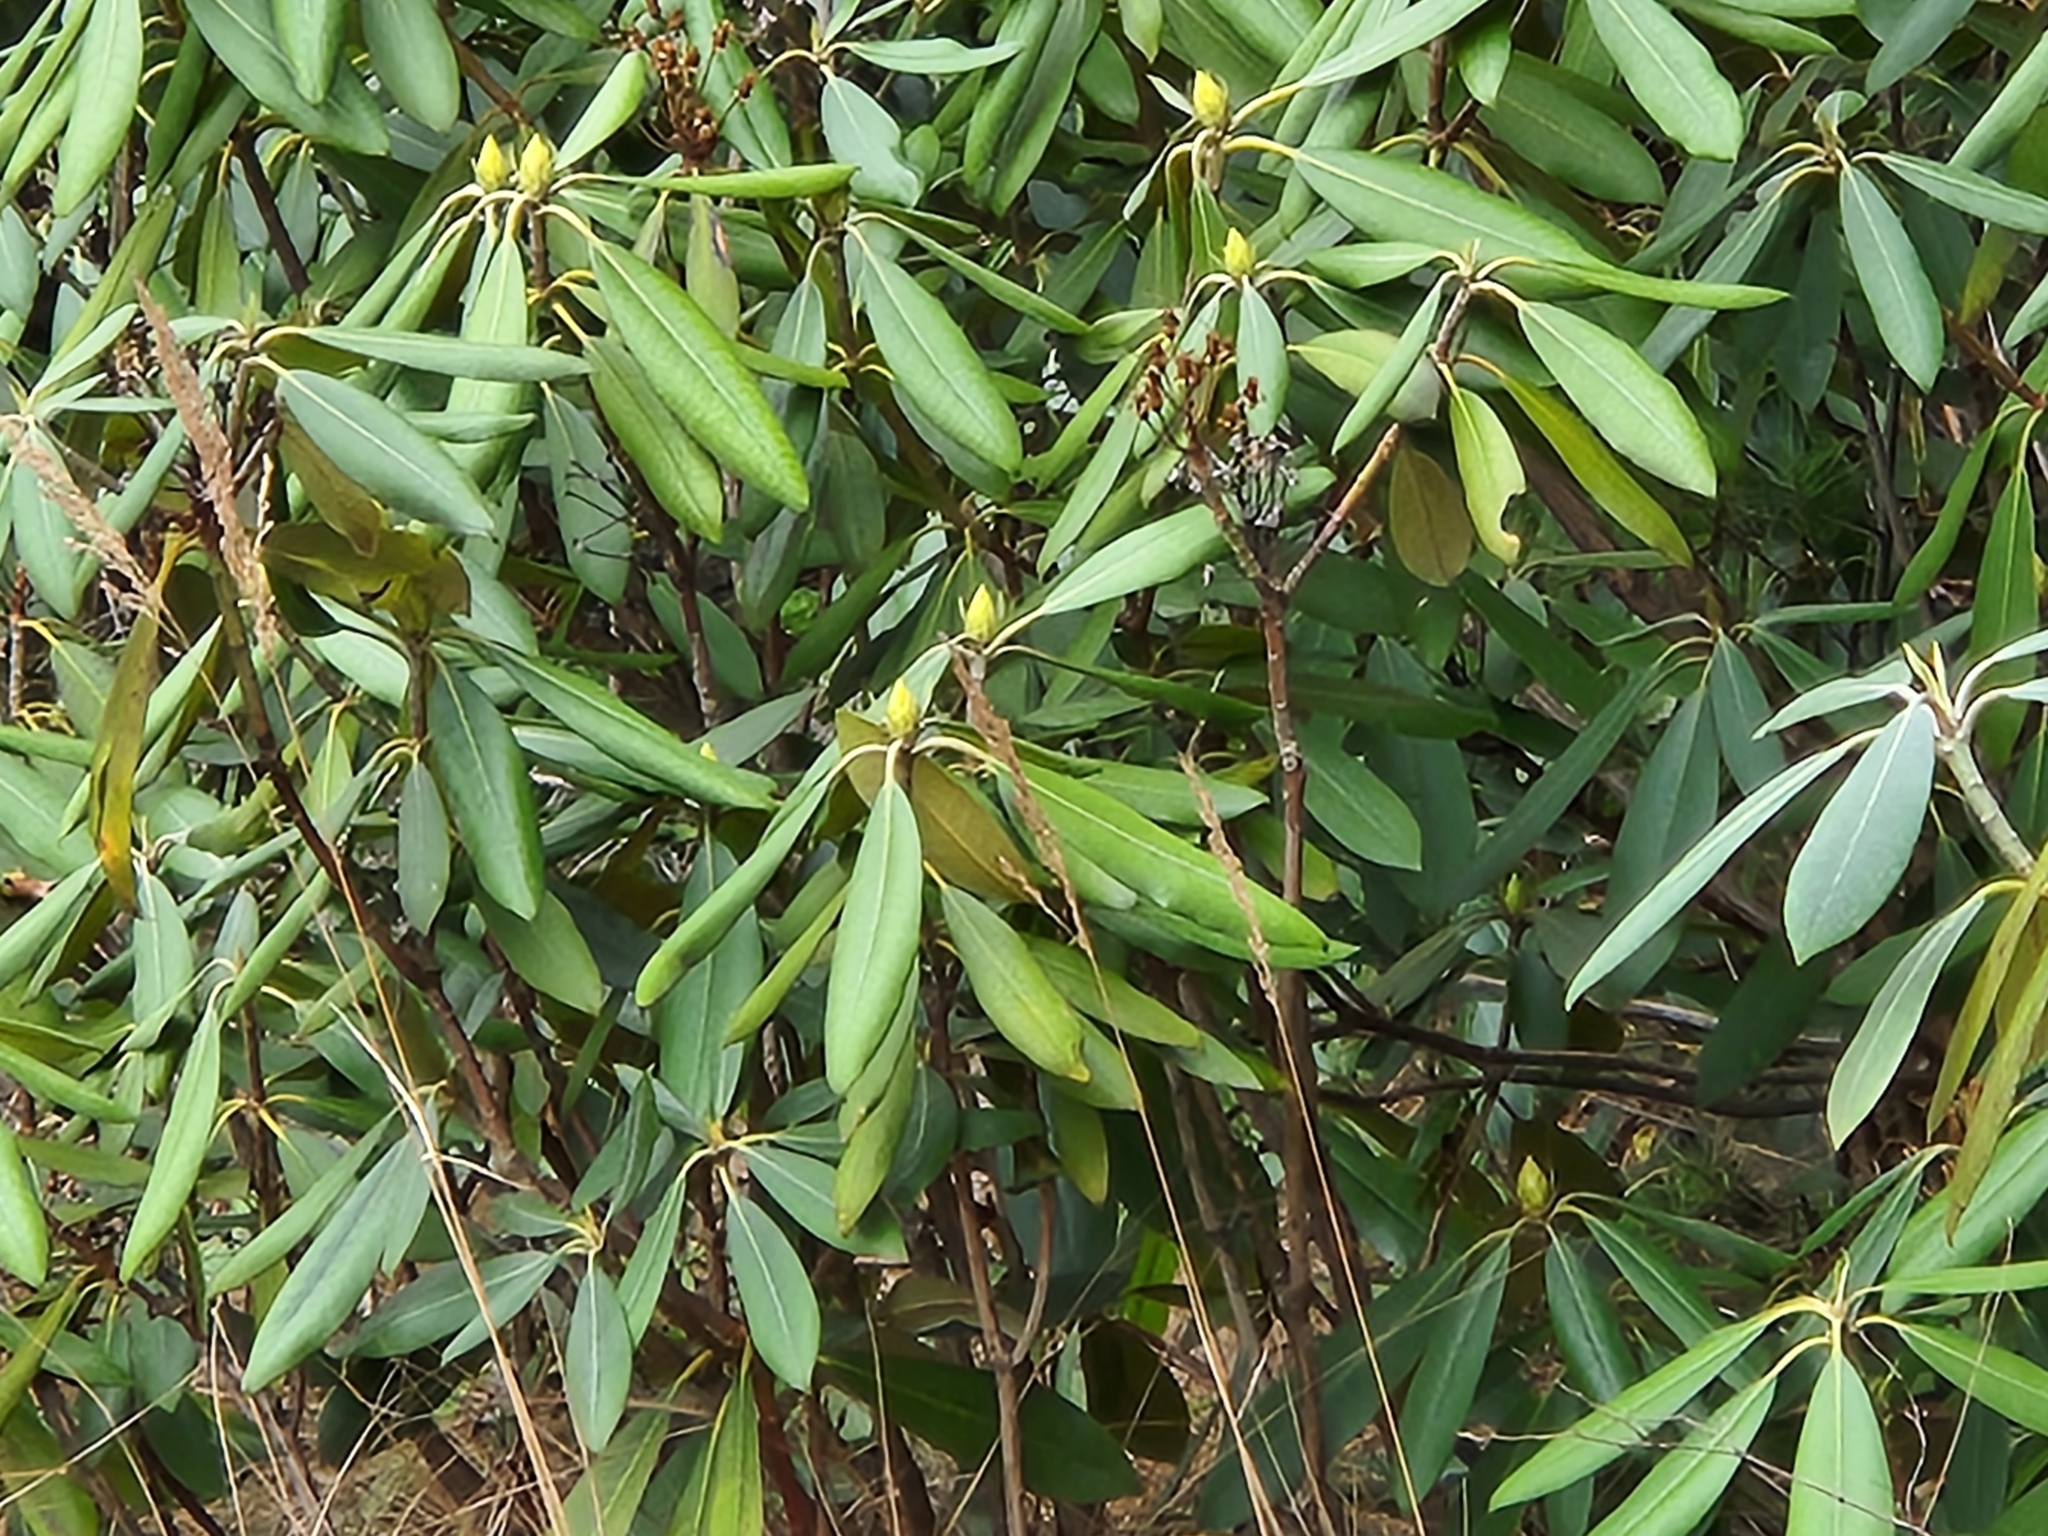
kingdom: Plantae
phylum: Tracheophyta
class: Magnoliopsida
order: Ericales
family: Ericaceae
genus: Rhododendron
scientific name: Rhododendron maximum
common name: Great rhododendron
